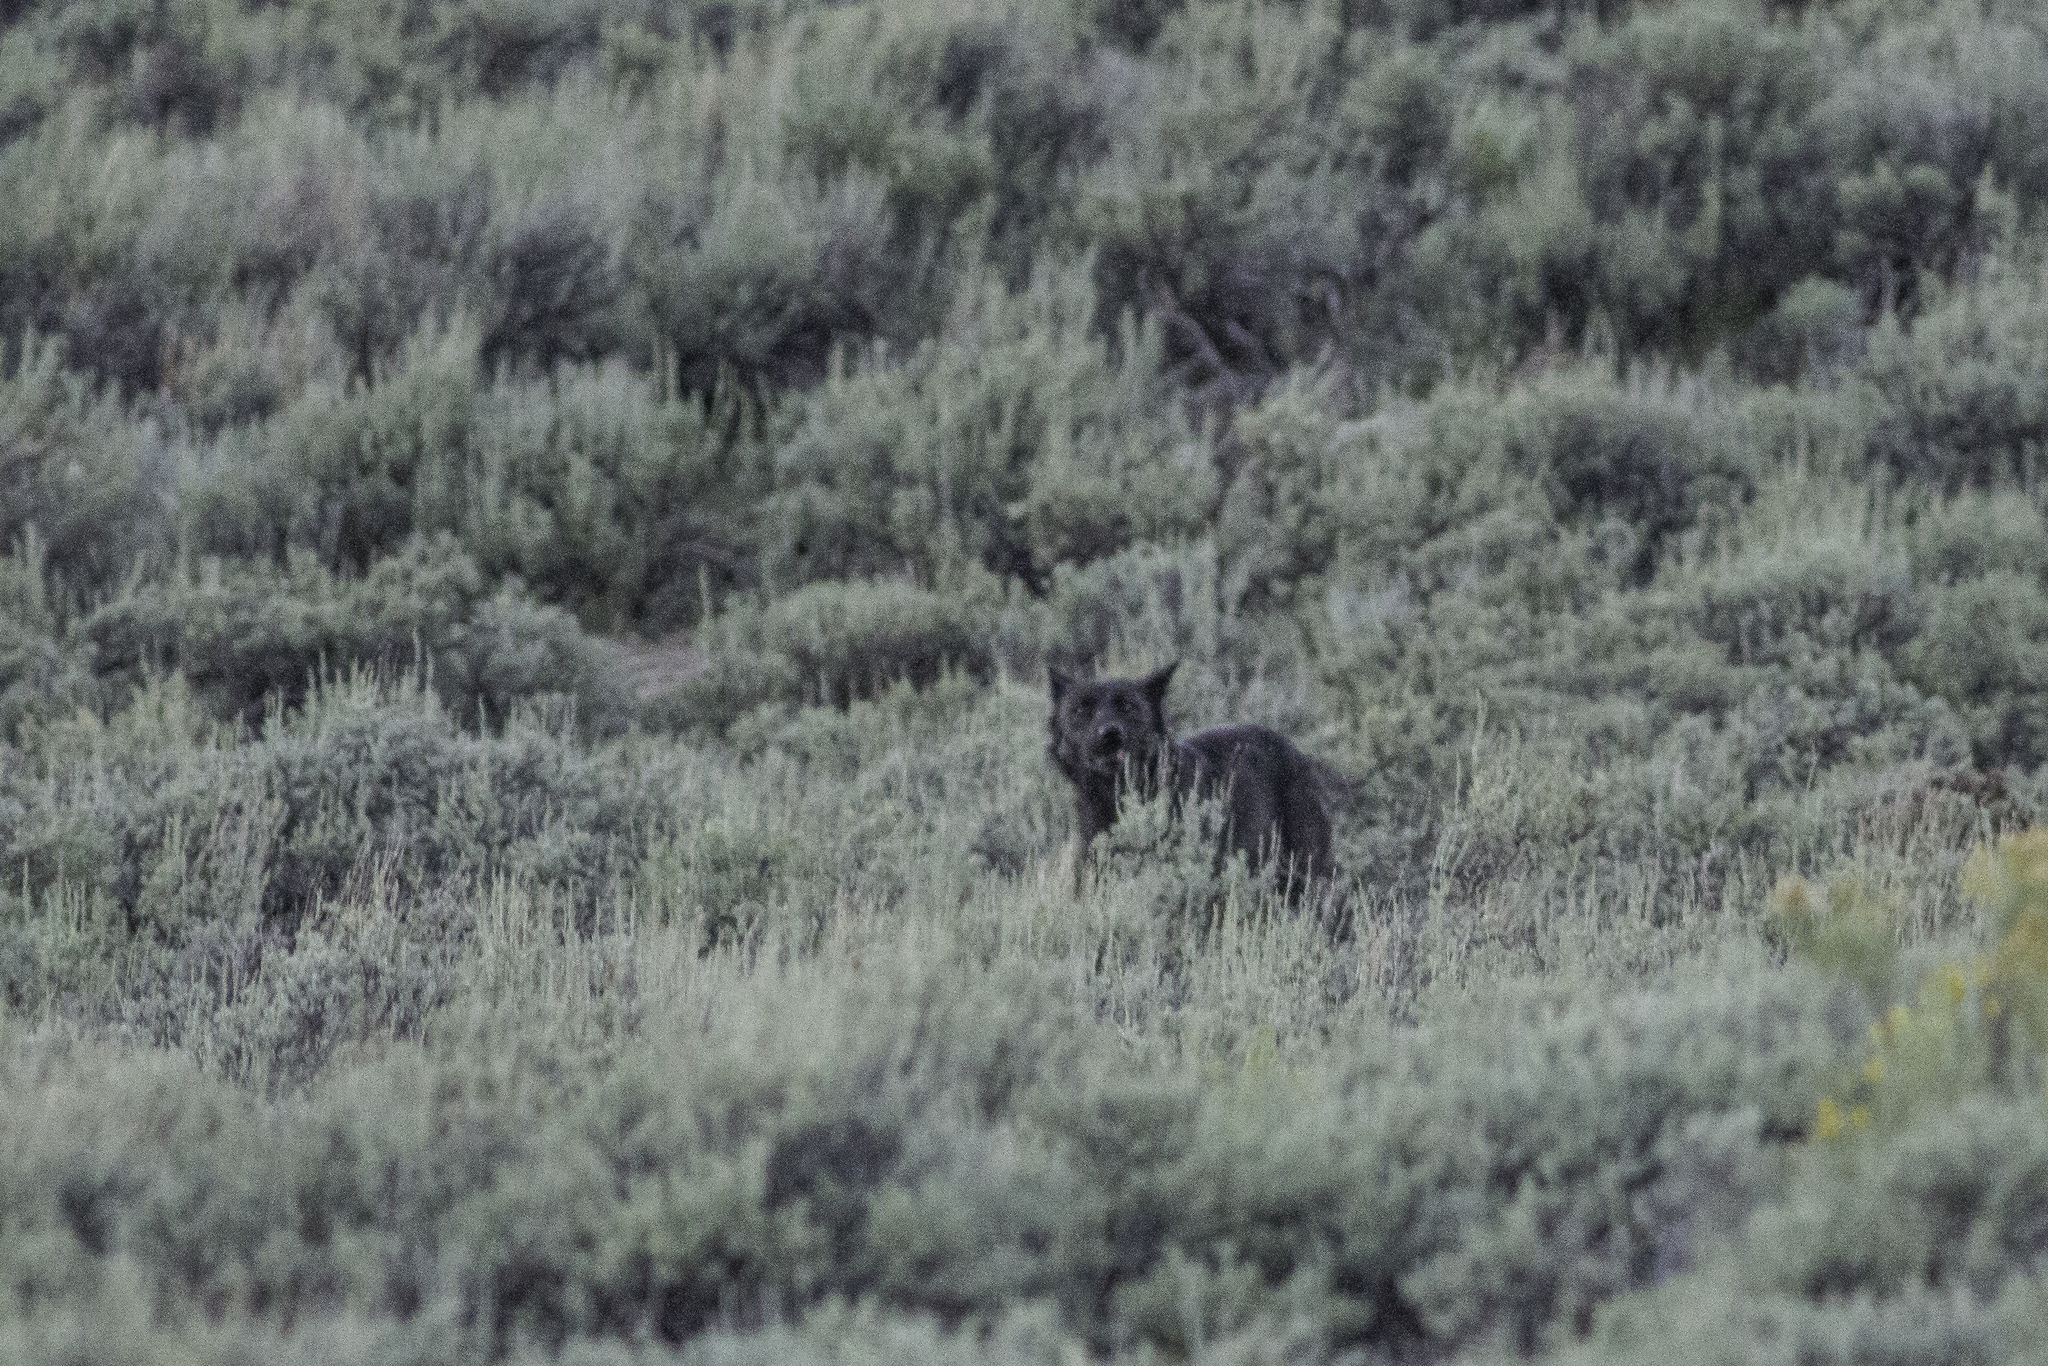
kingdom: Animalia
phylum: Chordata
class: Mammalia
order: Carnivora
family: Canidae
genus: Canis
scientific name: Canis lupus
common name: Gray wolf
